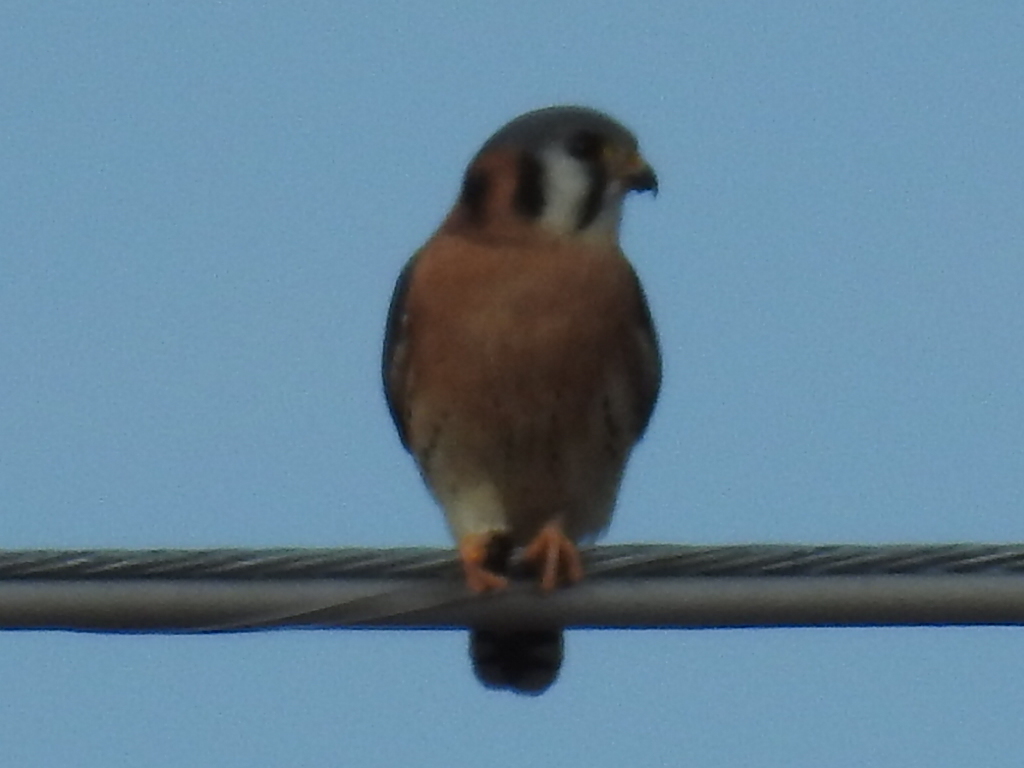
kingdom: Animalia
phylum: Chordata
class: Aves
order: Falconiformes
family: Falconidae
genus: Falco
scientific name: Falco sparverius
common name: American kestrel
